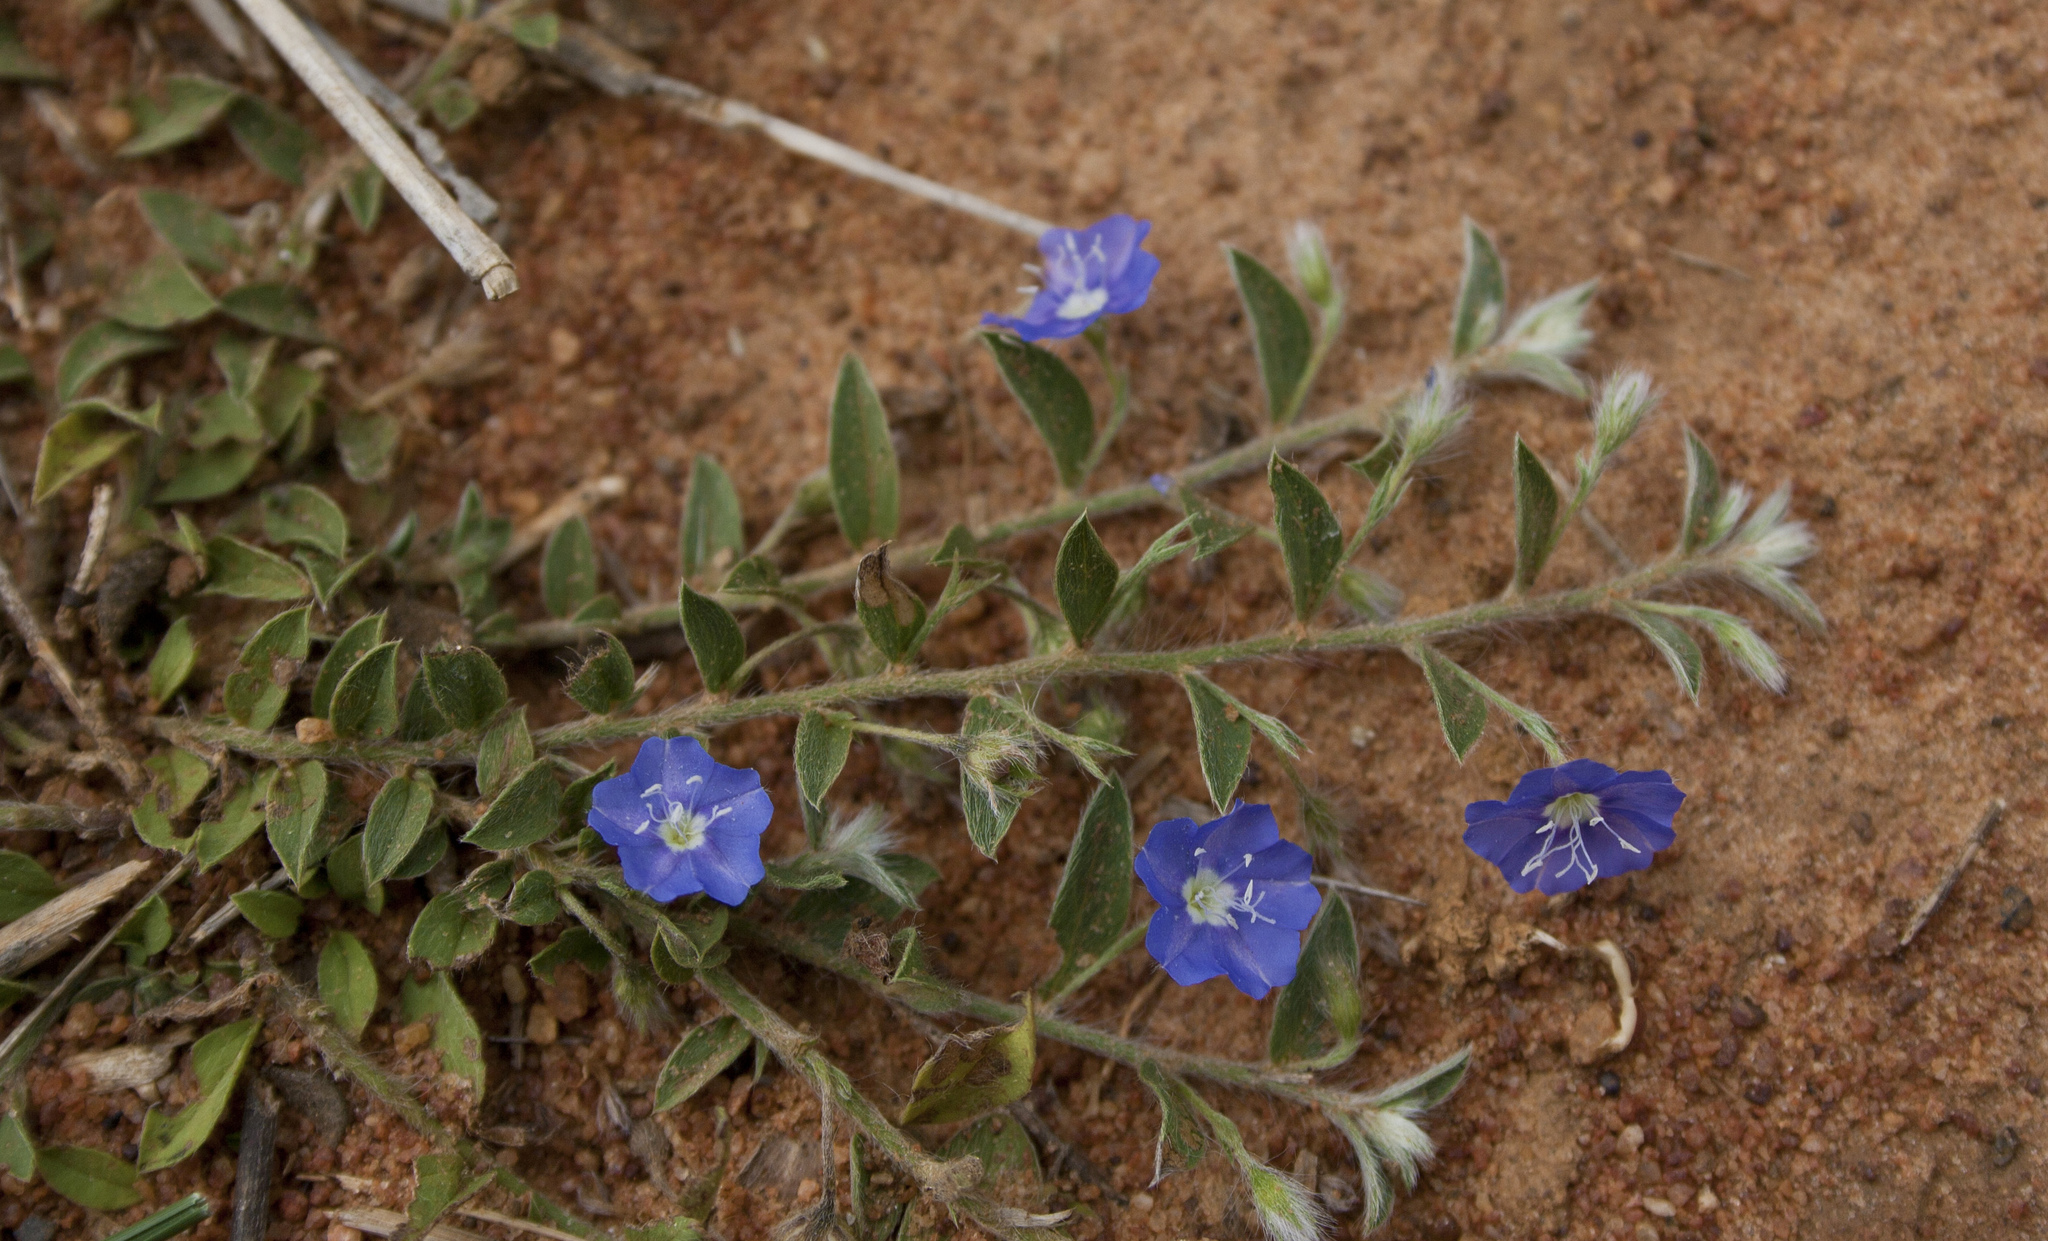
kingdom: Plantae
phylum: Tracheophyta
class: Magnoliopsida
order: Solanales
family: Convolvulaceae
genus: Evolvulus
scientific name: Evolvulus alsinoides
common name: Slender dwarf morning-glory
